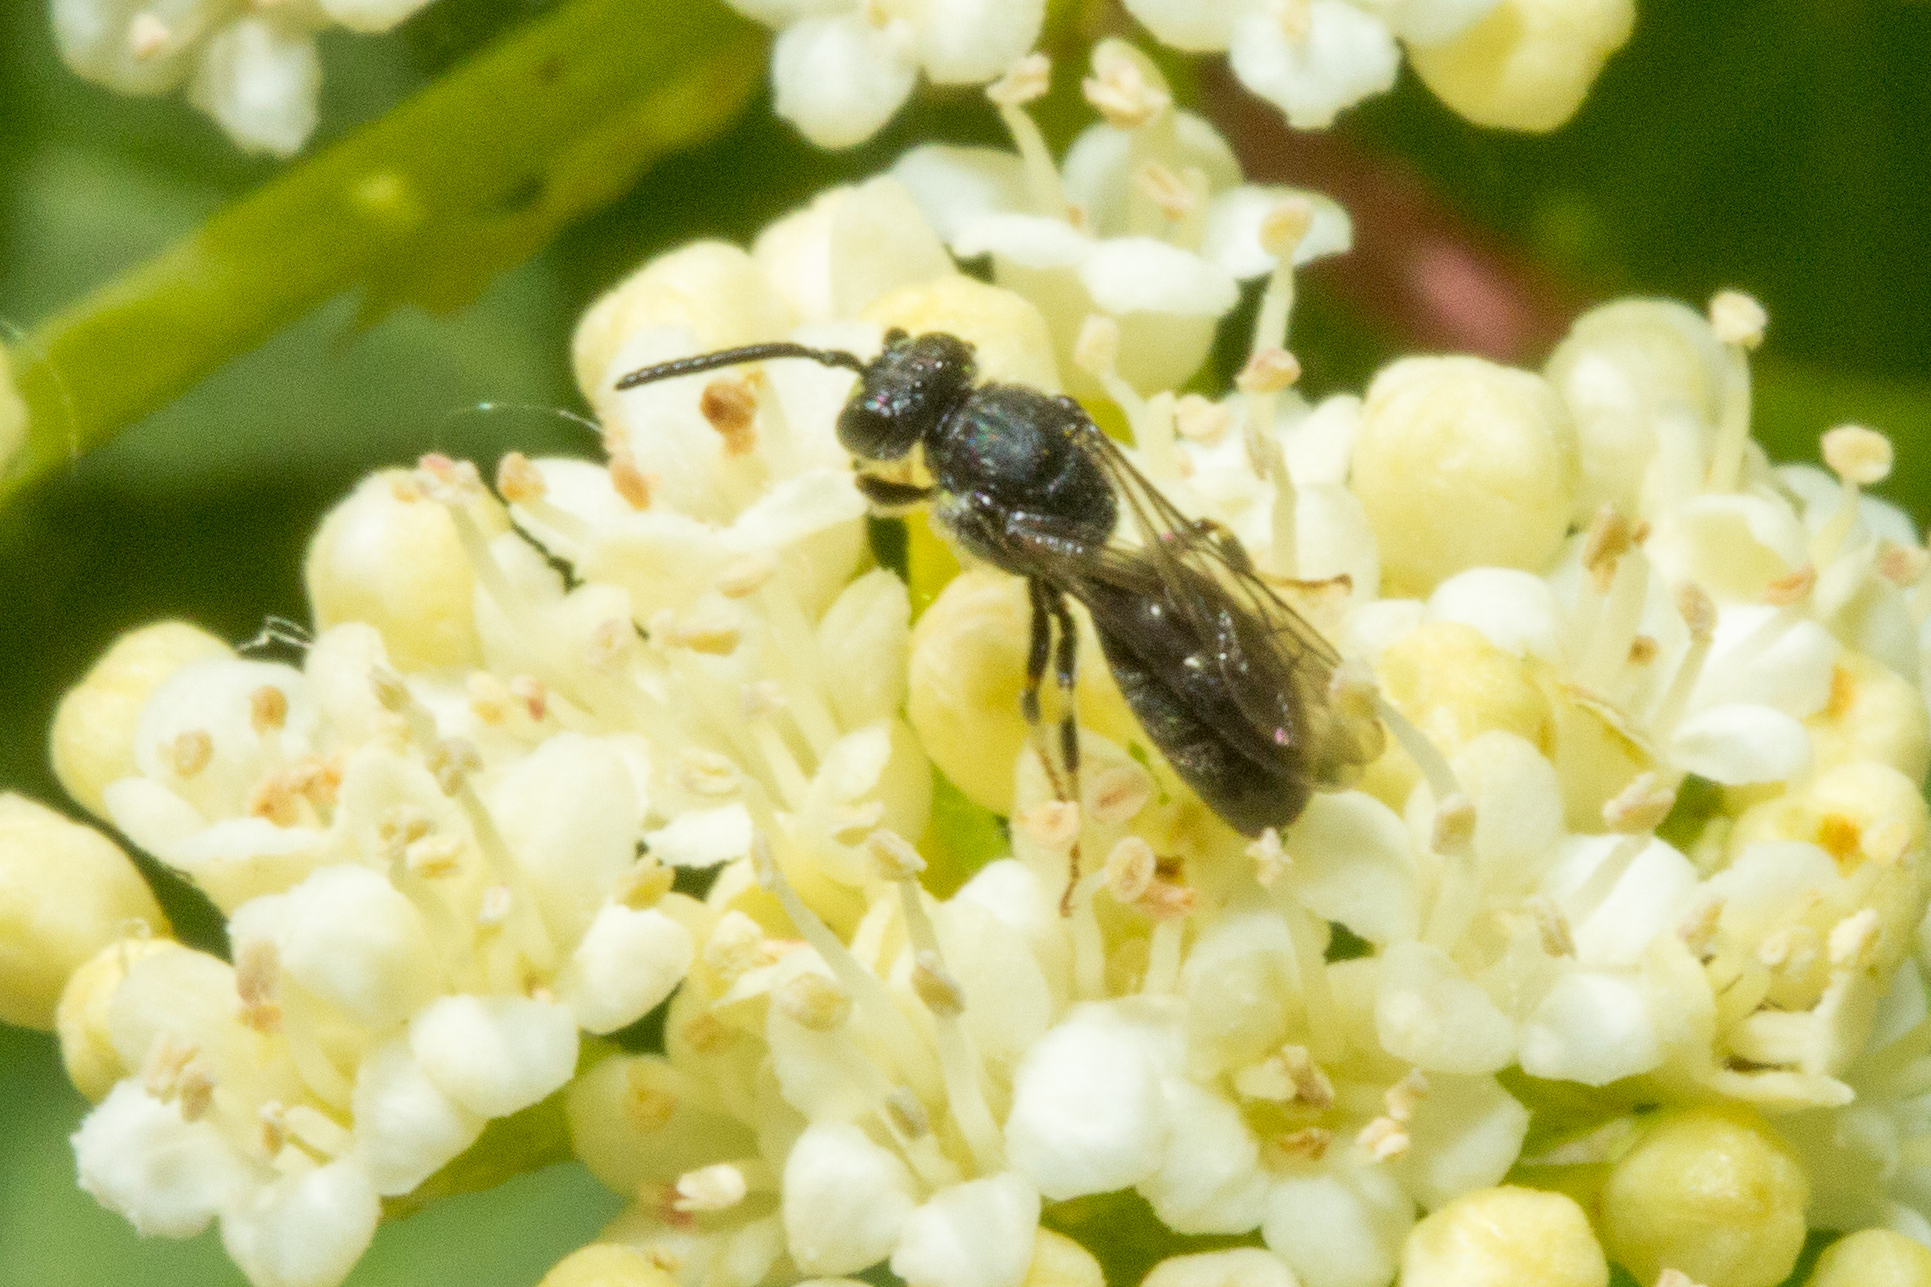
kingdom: Animalia
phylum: Arthropoda
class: Insecta
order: Hymenoptera
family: Colletidae
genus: Hylaeus
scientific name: Hylaeus
